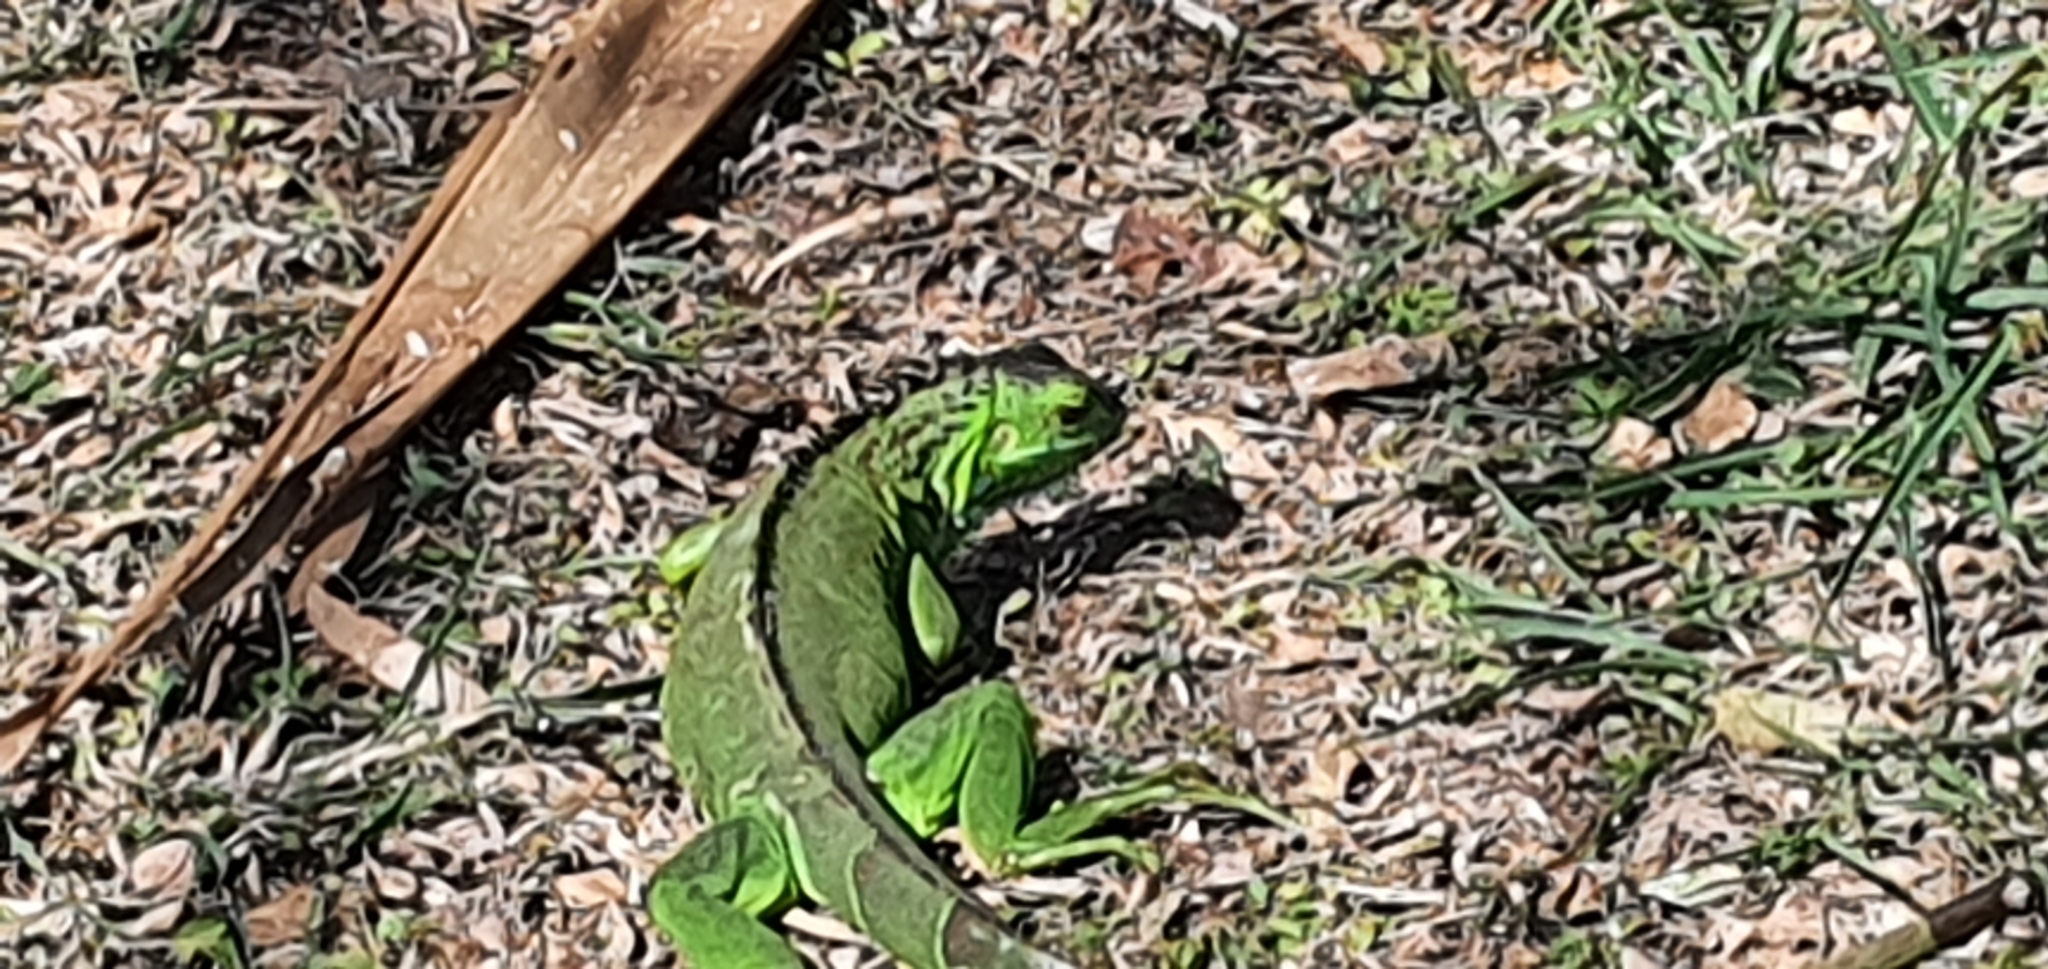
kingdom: Animalia
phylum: Chordata
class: Squamata
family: Iguanidae
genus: Iguana
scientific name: Iguana iguana
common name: Green iguana
